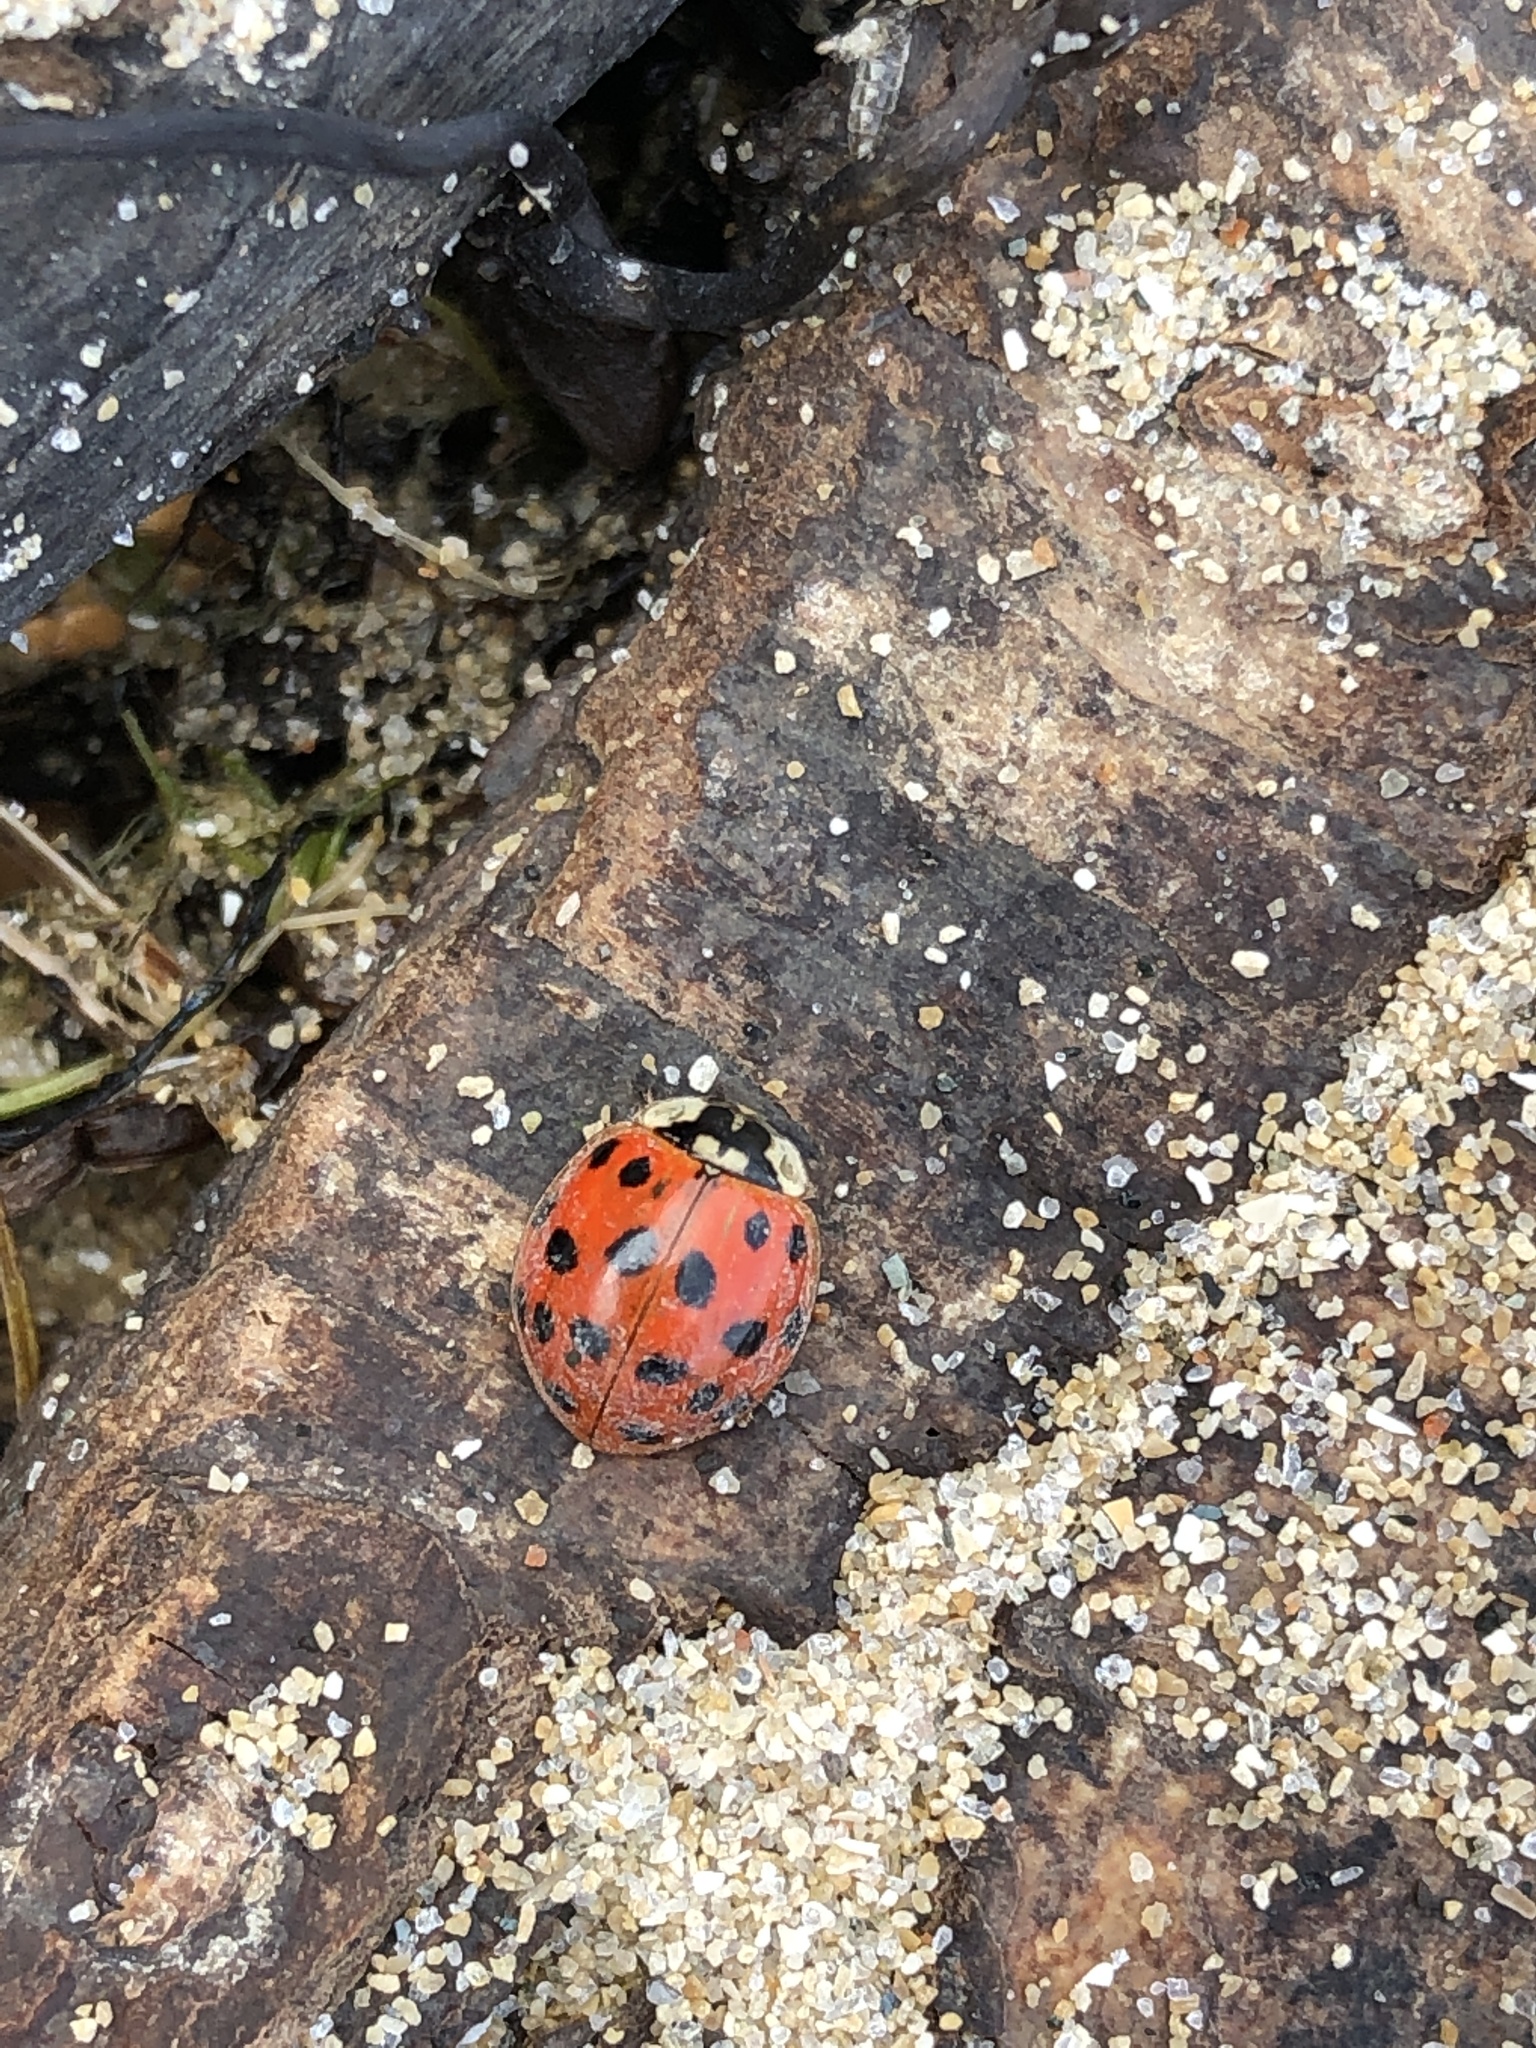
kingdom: Animalia
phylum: Arthropoda
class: Insecta
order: Coleoptera
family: Coccinellidae
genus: Harmonia
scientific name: Harmonia axyridis
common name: Harlequin ladybird
